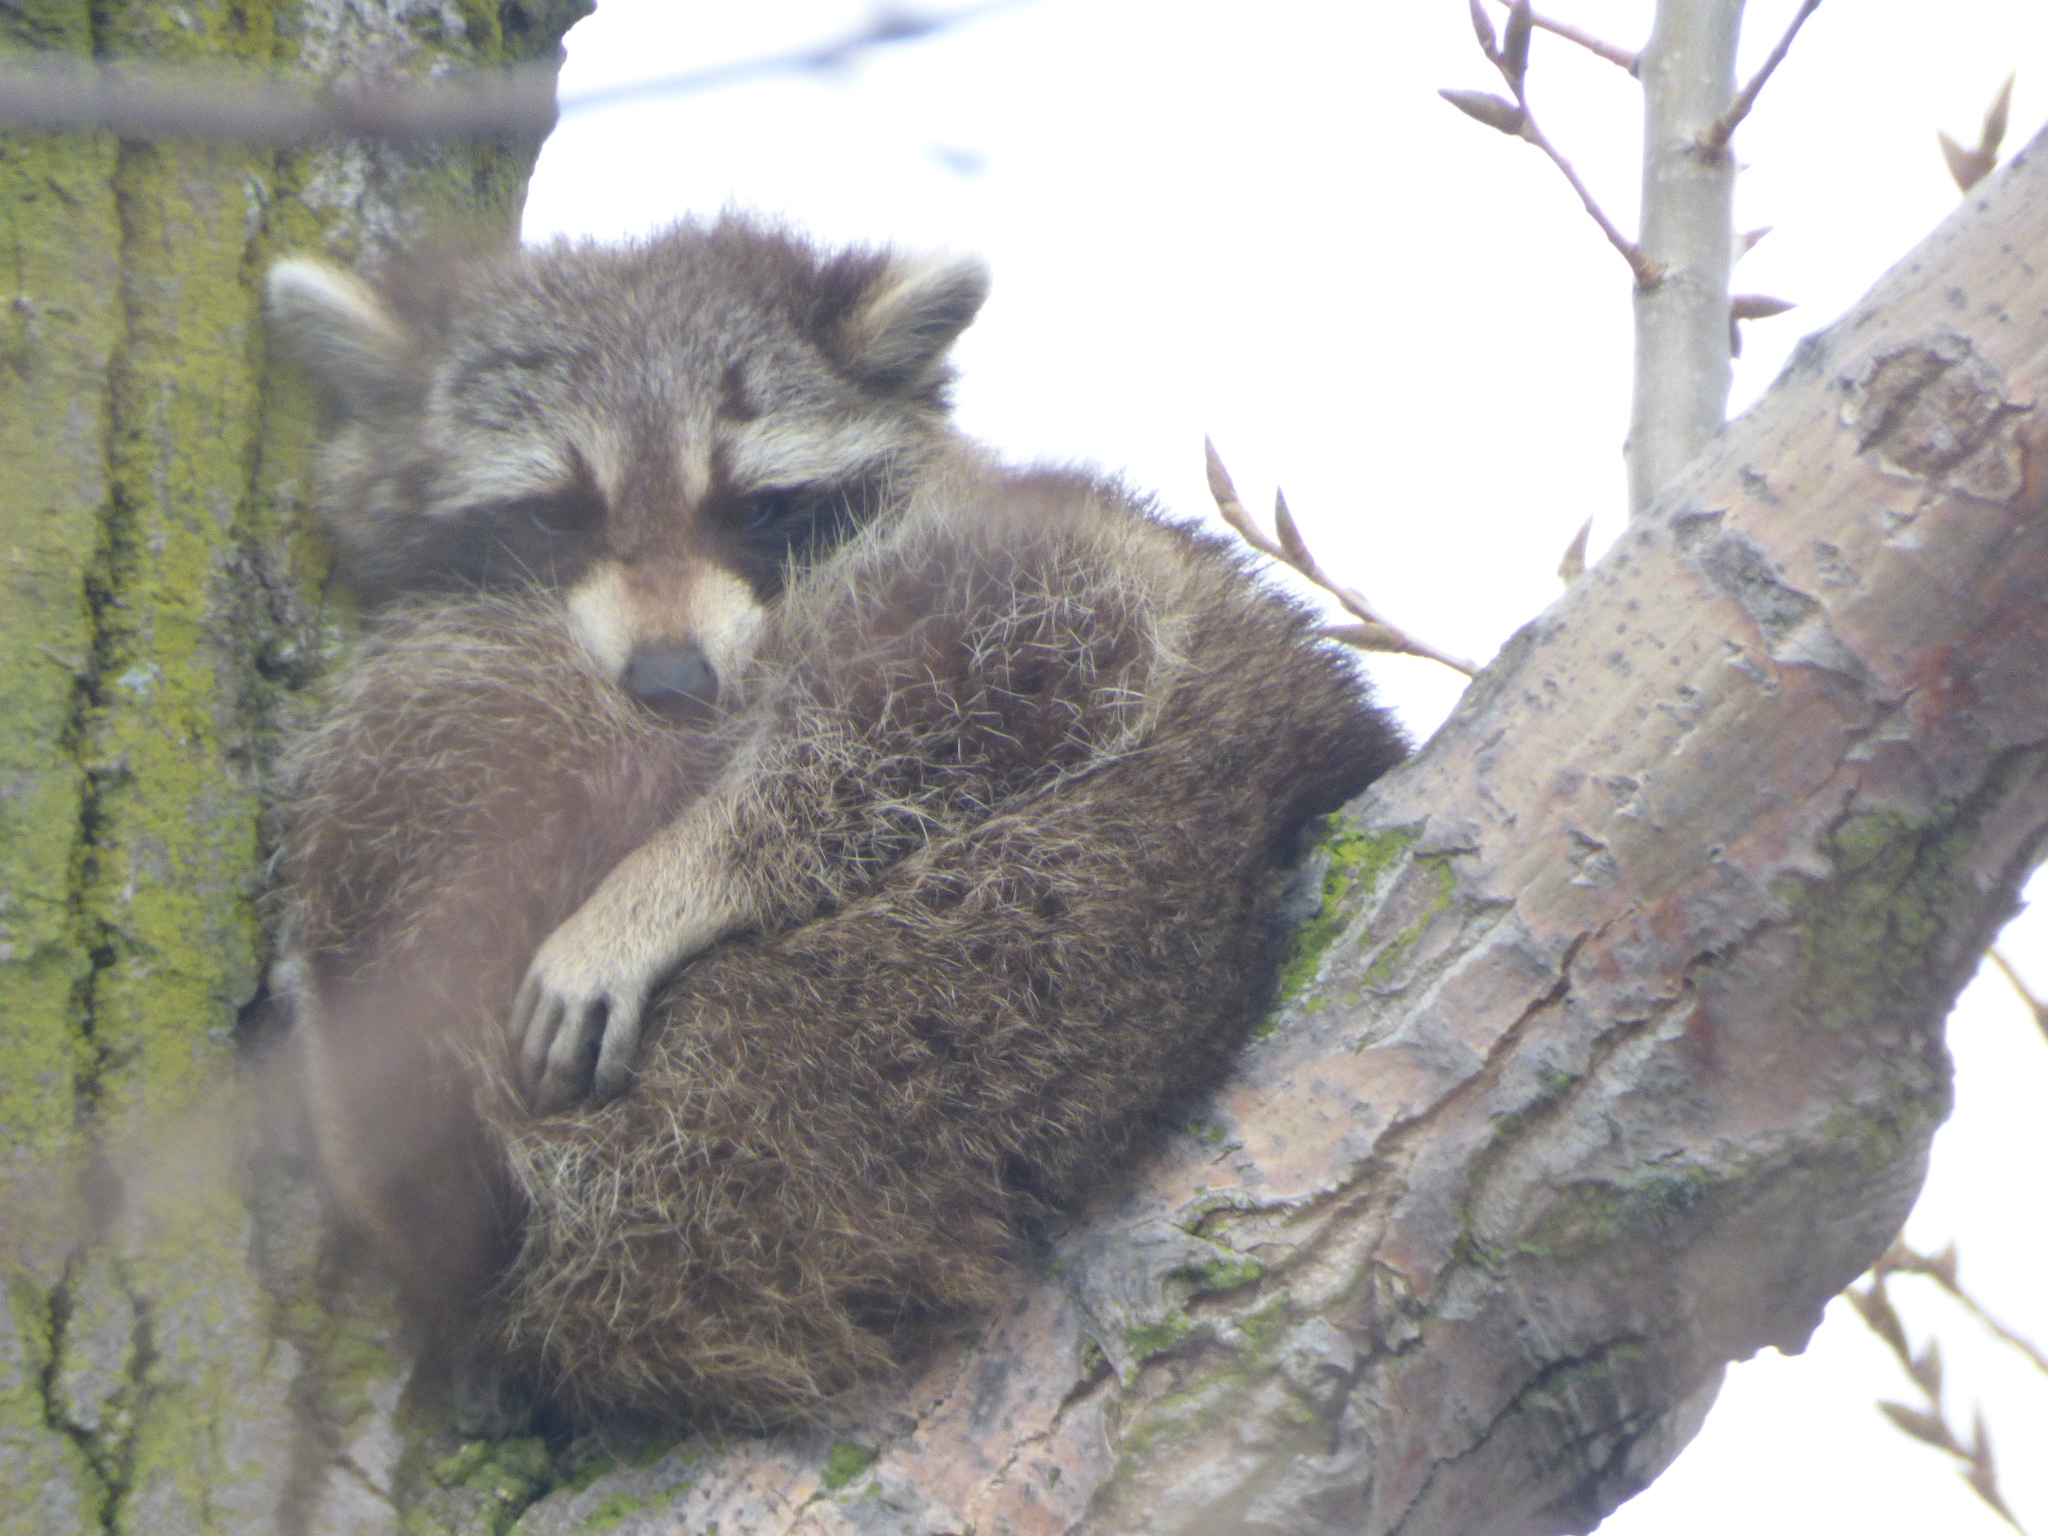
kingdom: Animalia
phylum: Chordata
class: Mammalia
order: Carnivora
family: Procyonidae
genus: Procyon
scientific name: Procyon lotor
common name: Raccoon
